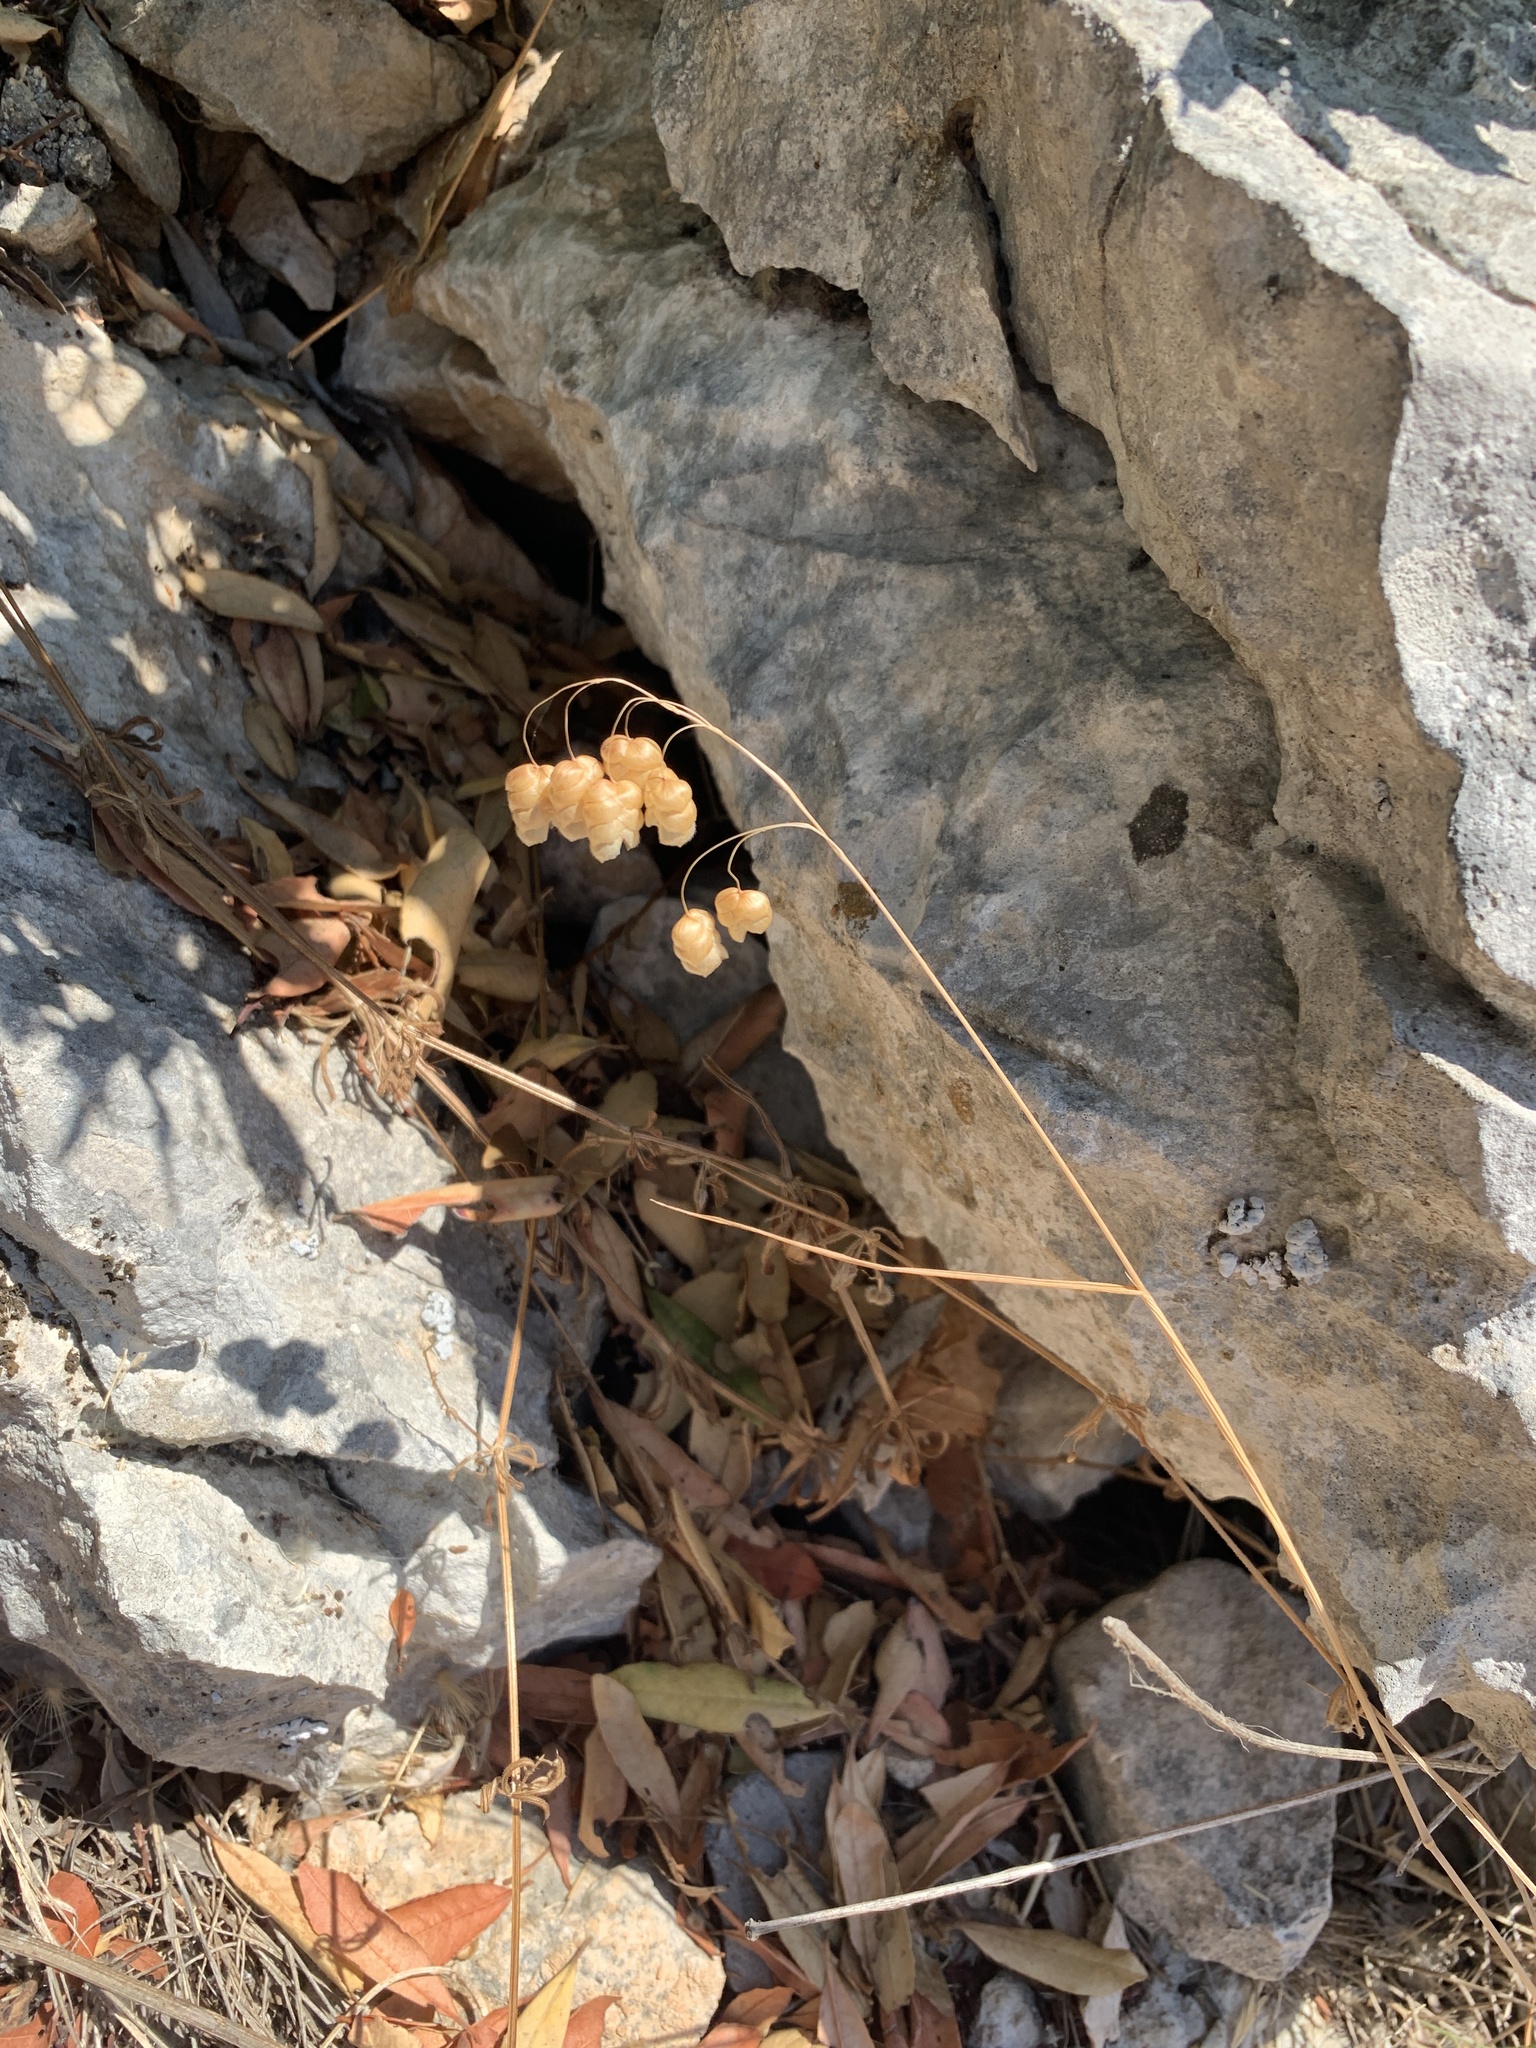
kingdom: Plantae
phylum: Tracheophyta
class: Liliopsida
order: Poales
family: Poaceae
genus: Briza
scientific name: Briza maxima
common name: Big quakinggrass
